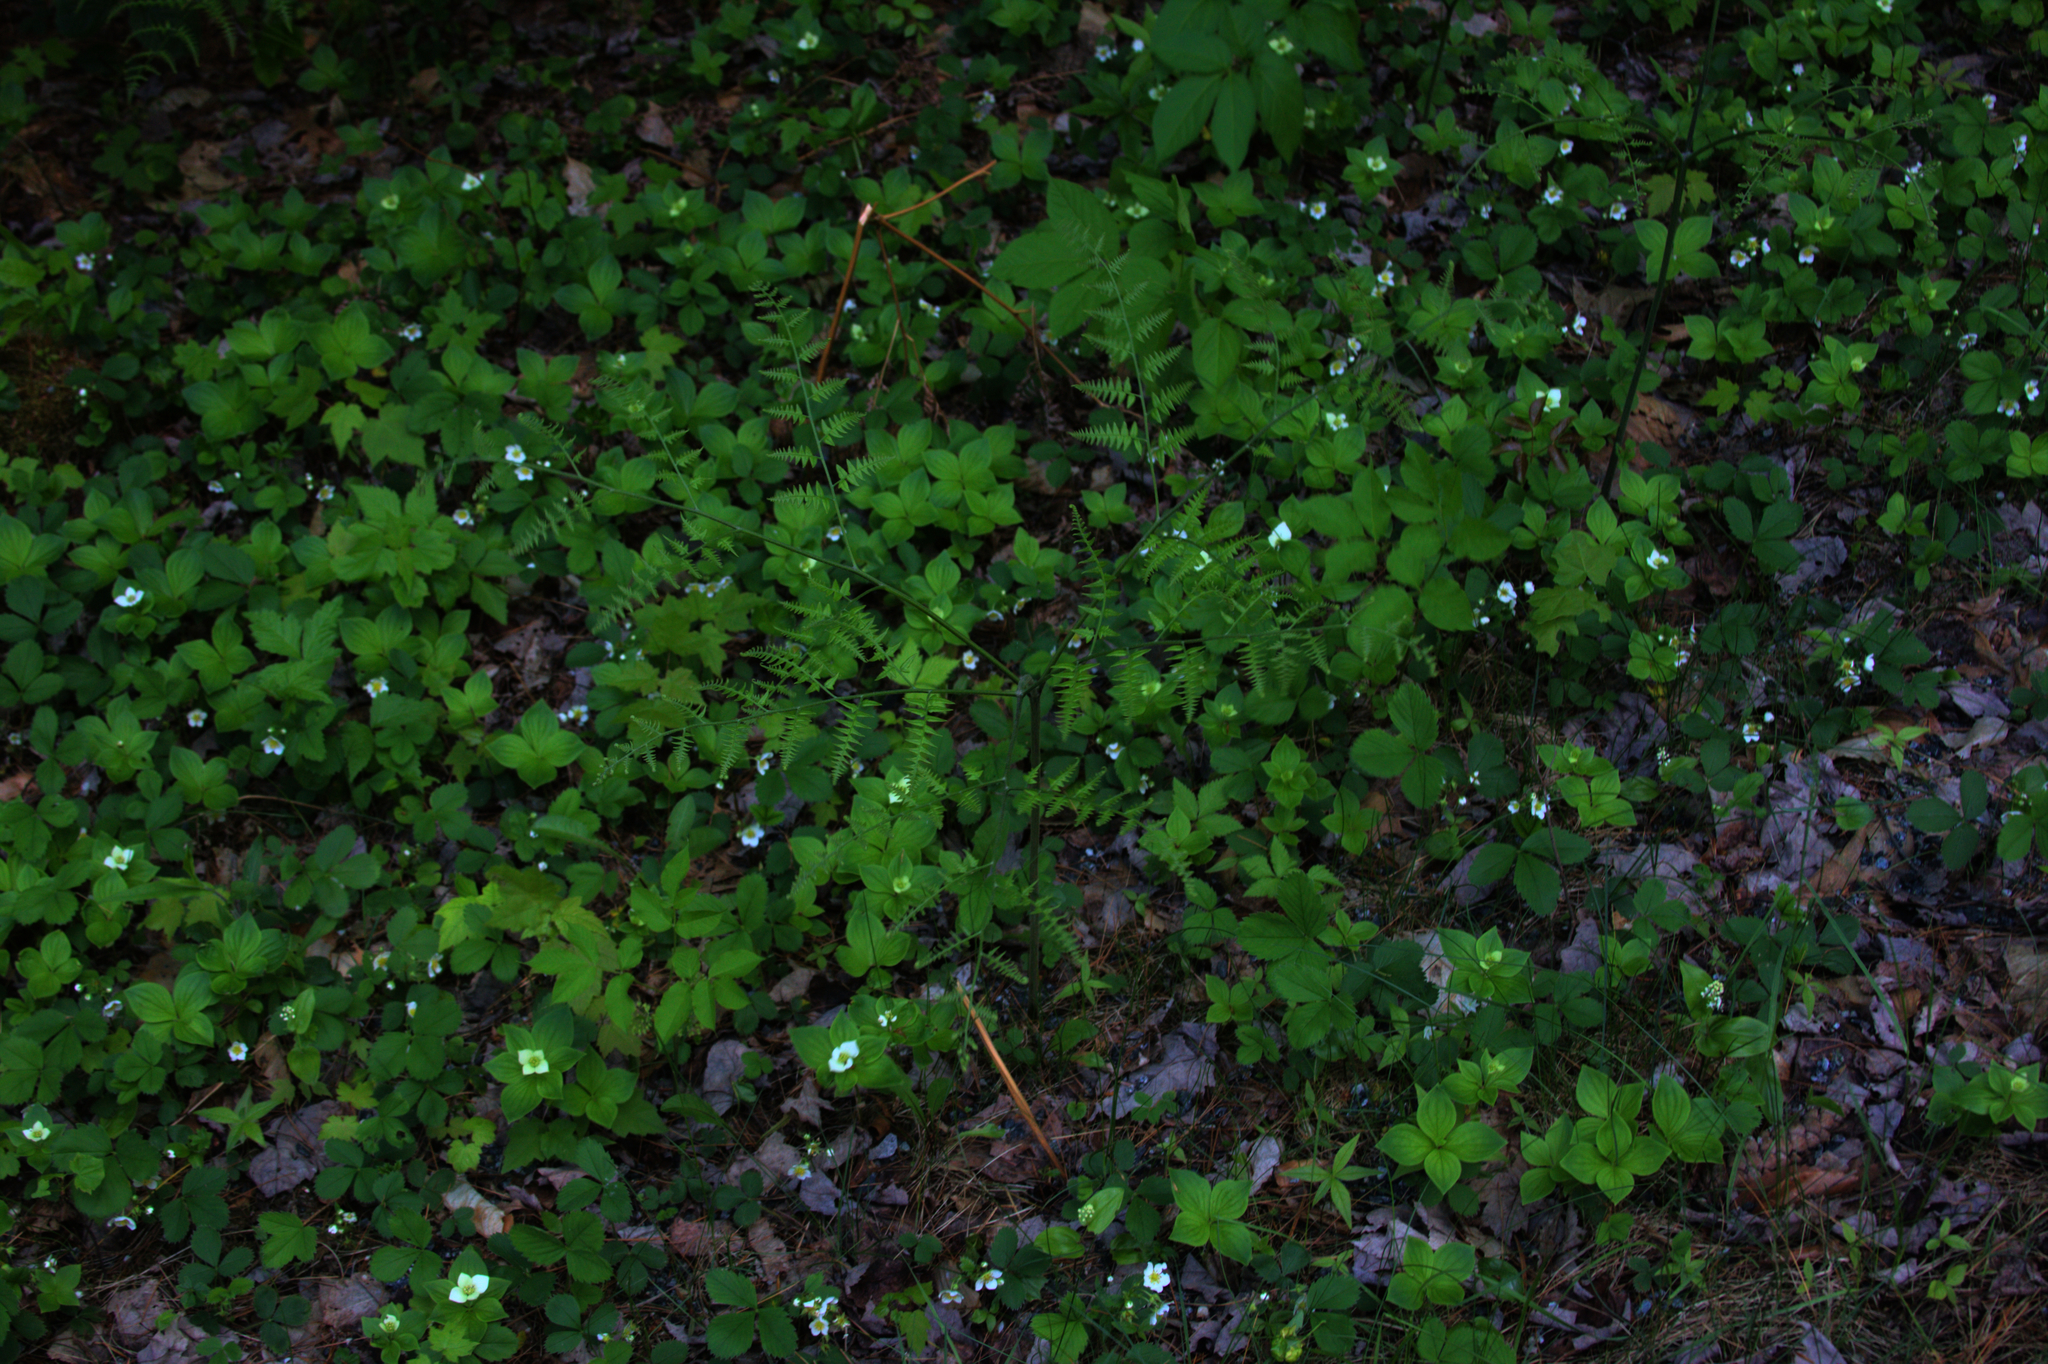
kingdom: Plantae
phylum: Tracheophyta
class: Polypodiopsida
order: Polypodiales
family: Dennstaedtiaceae
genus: Pteridium
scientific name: Pteridium aquilinum
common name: Bracken
